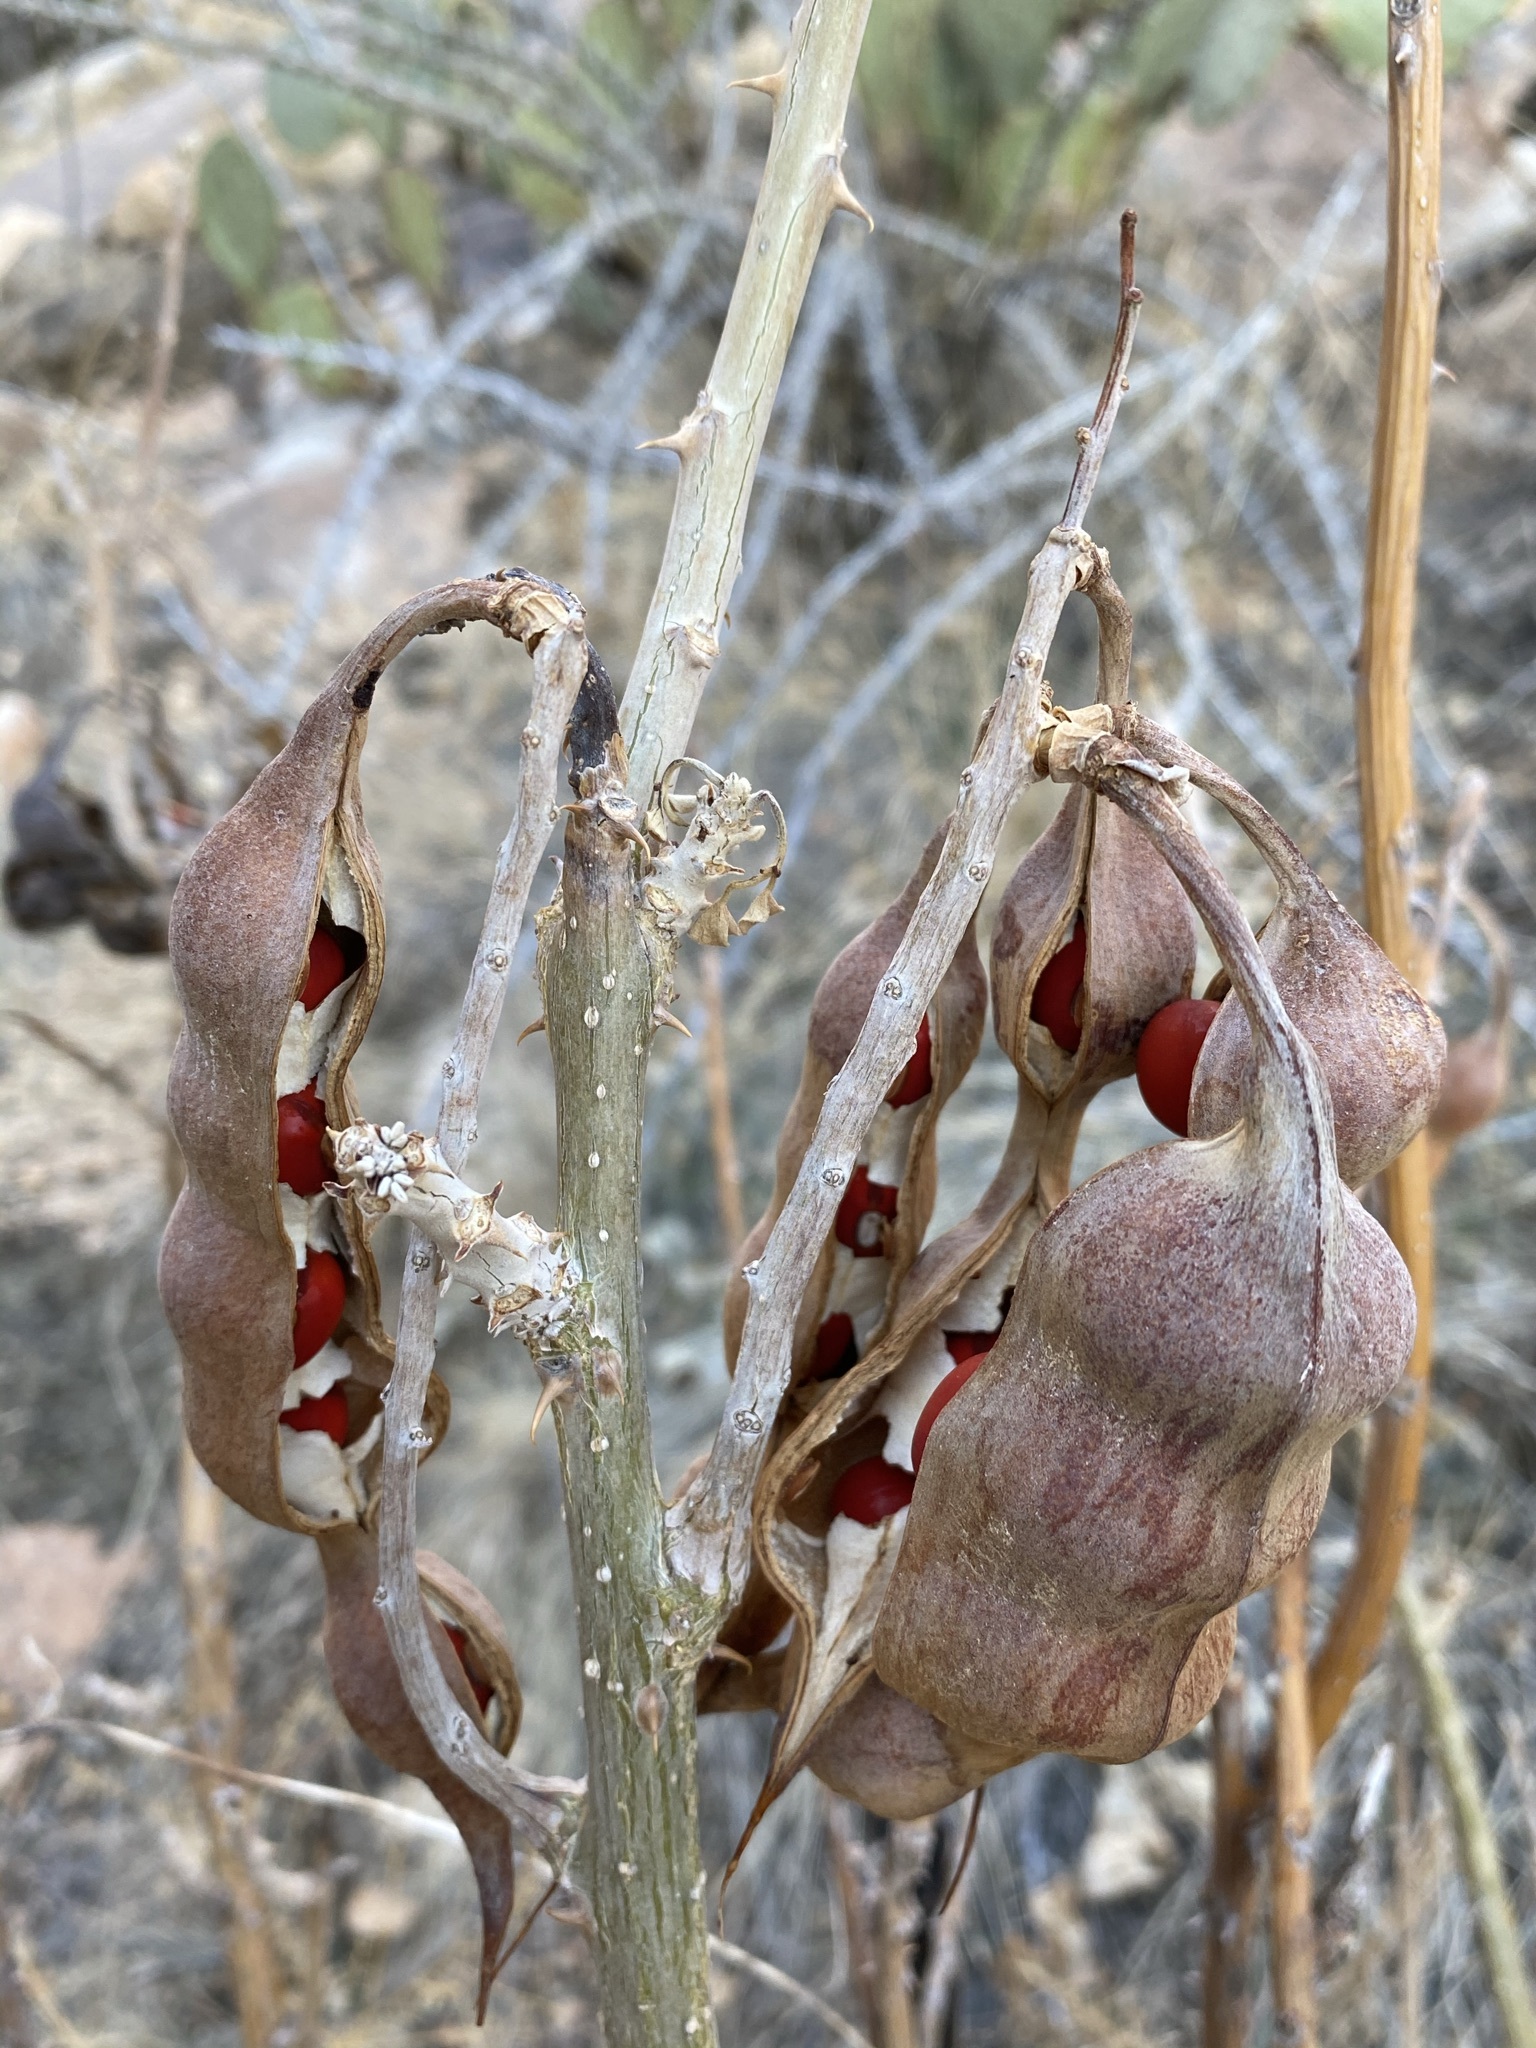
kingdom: Plantae
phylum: Tracheophyta
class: Magnoliopsida
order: Fabales
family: Fabaceae
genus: Erythrina
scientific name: Erythrina flabelliformis
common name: Chilicote
